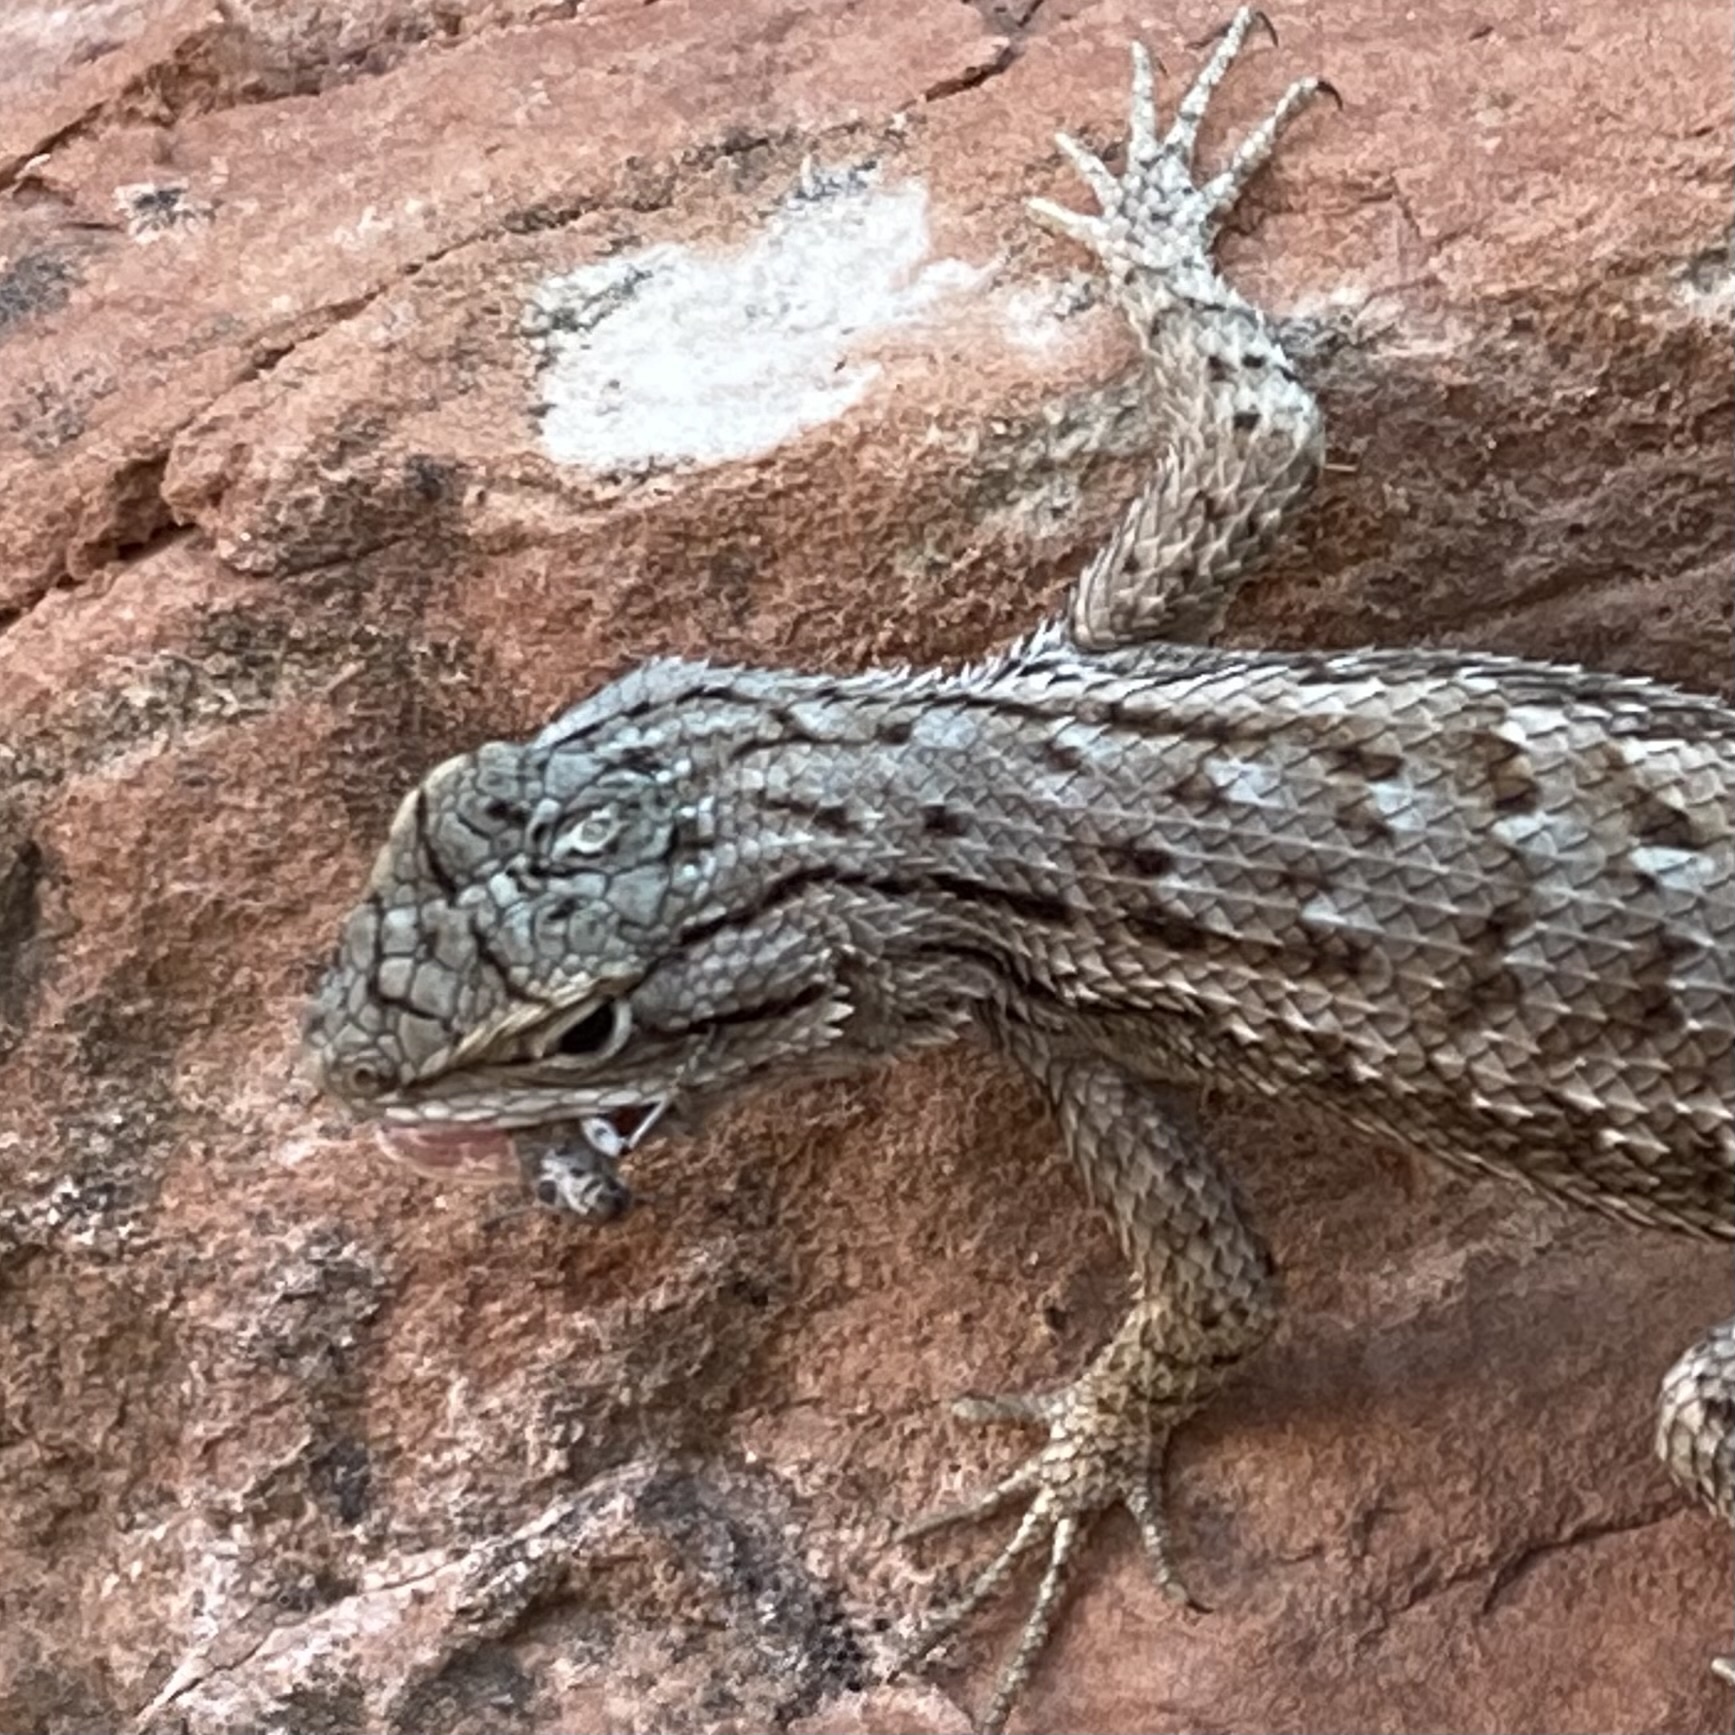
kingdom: Animalia
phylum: Chordata
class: Squamata
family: Phrynosomatidae
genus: Sceloporus
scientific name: Sceloporus tristichus
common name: Plateau fence lizard
